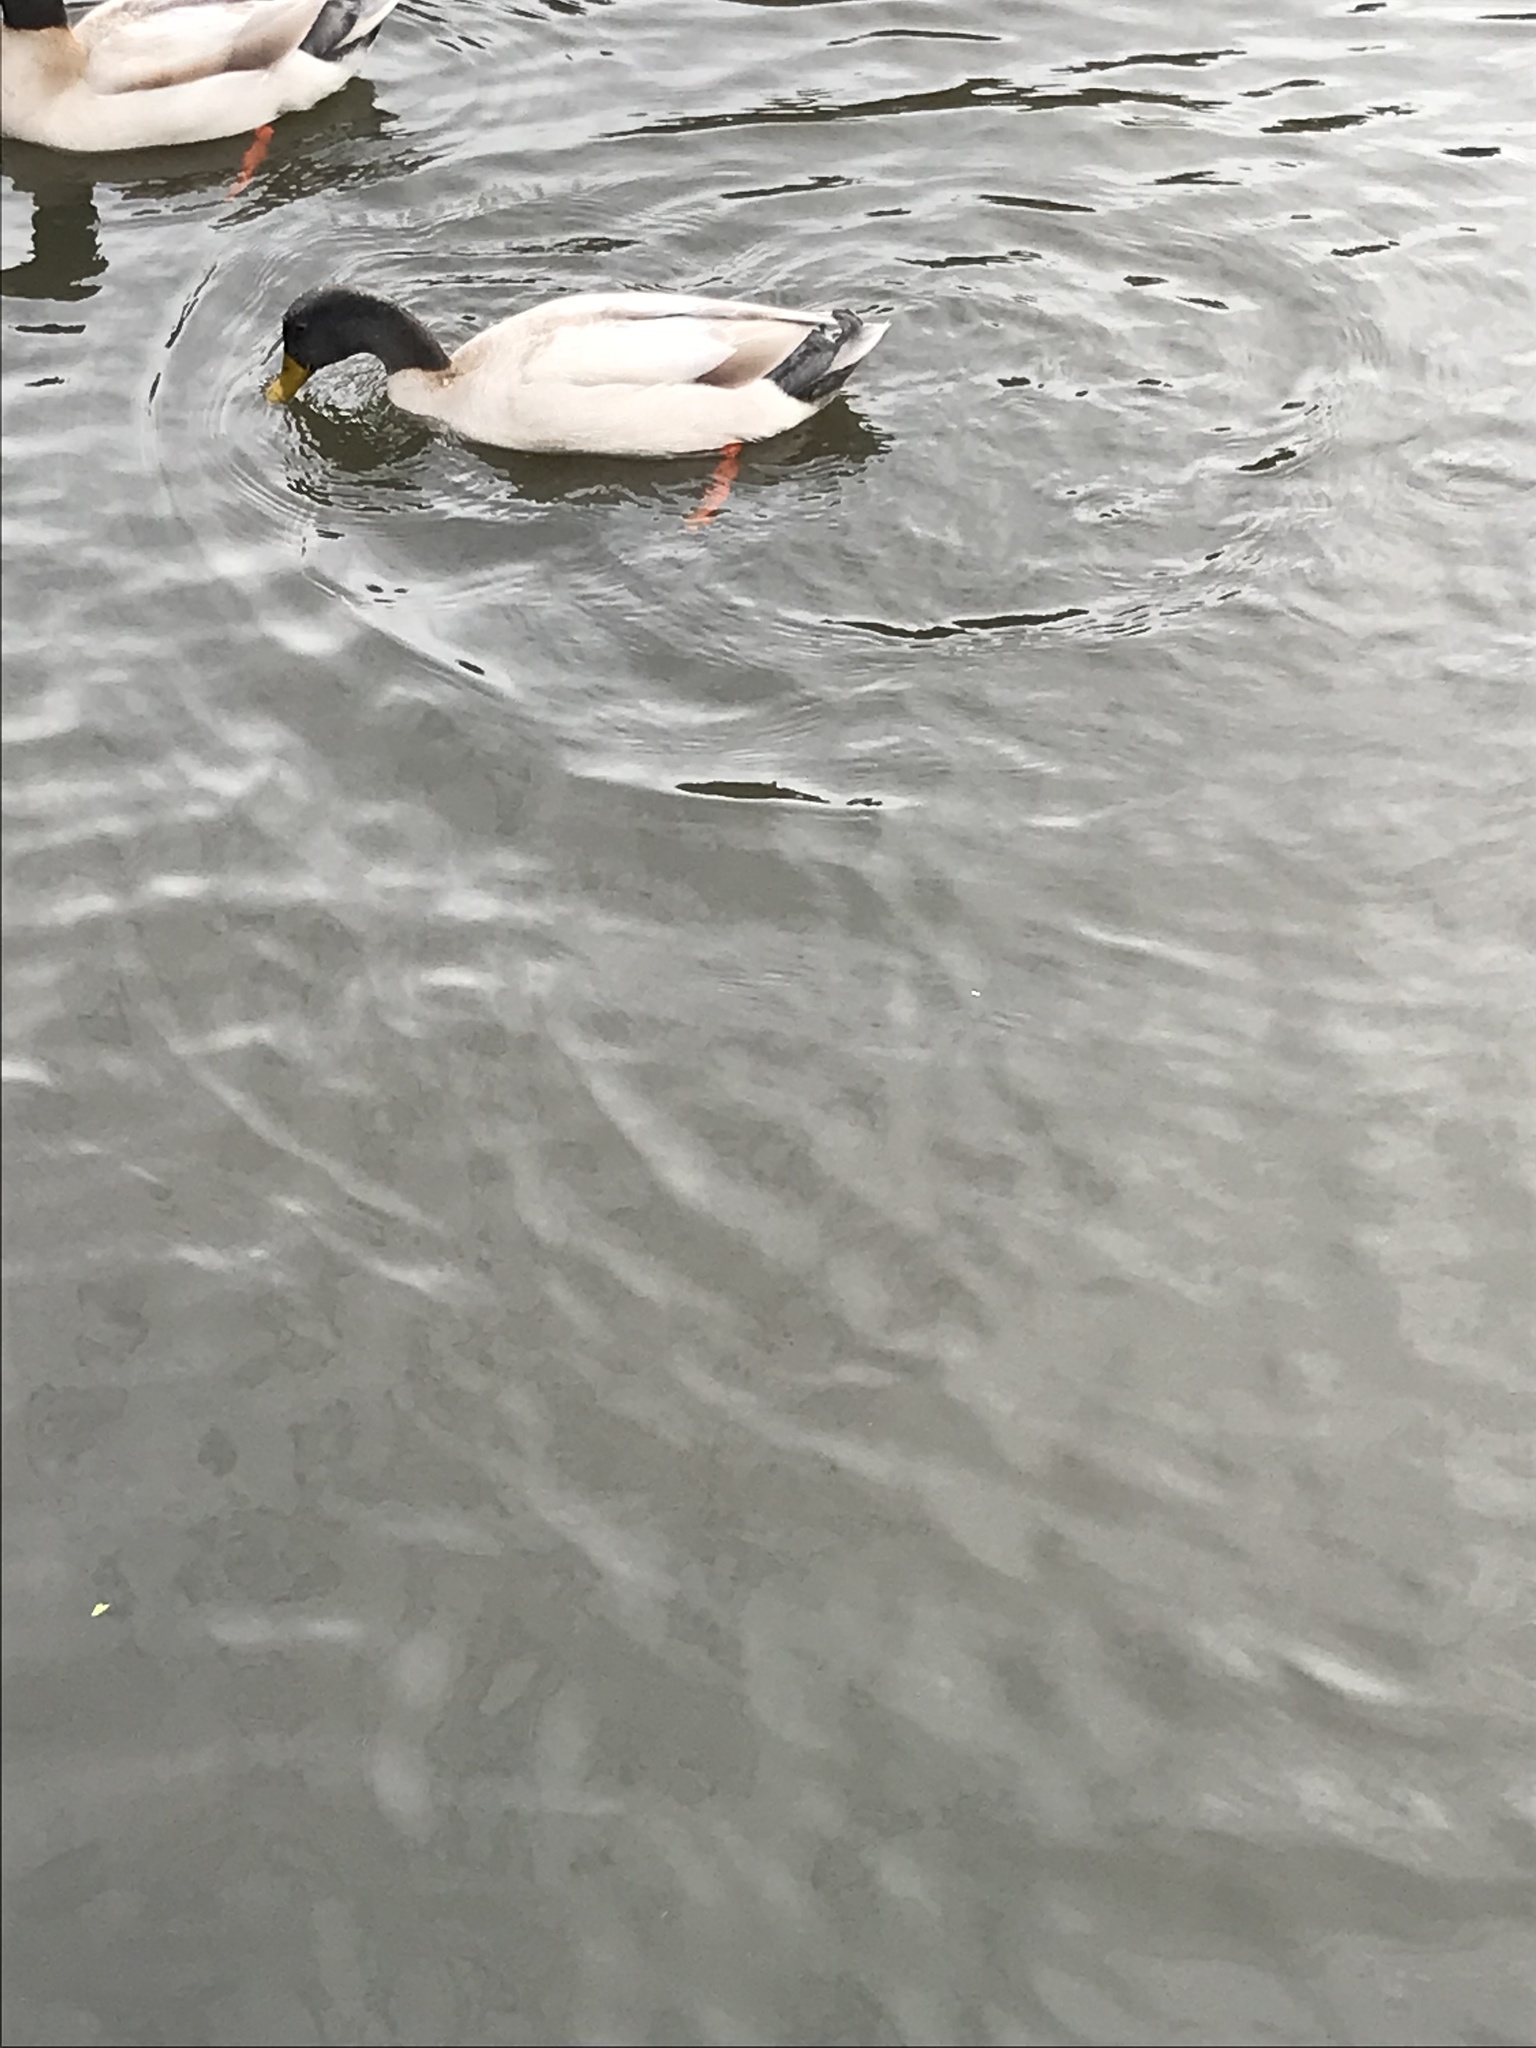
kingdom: Animalia
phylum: Chordata
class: Aves
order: Anseriformes
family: Anatidae
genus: Anas
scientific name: Anas platyrhynchos
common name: Mallard
